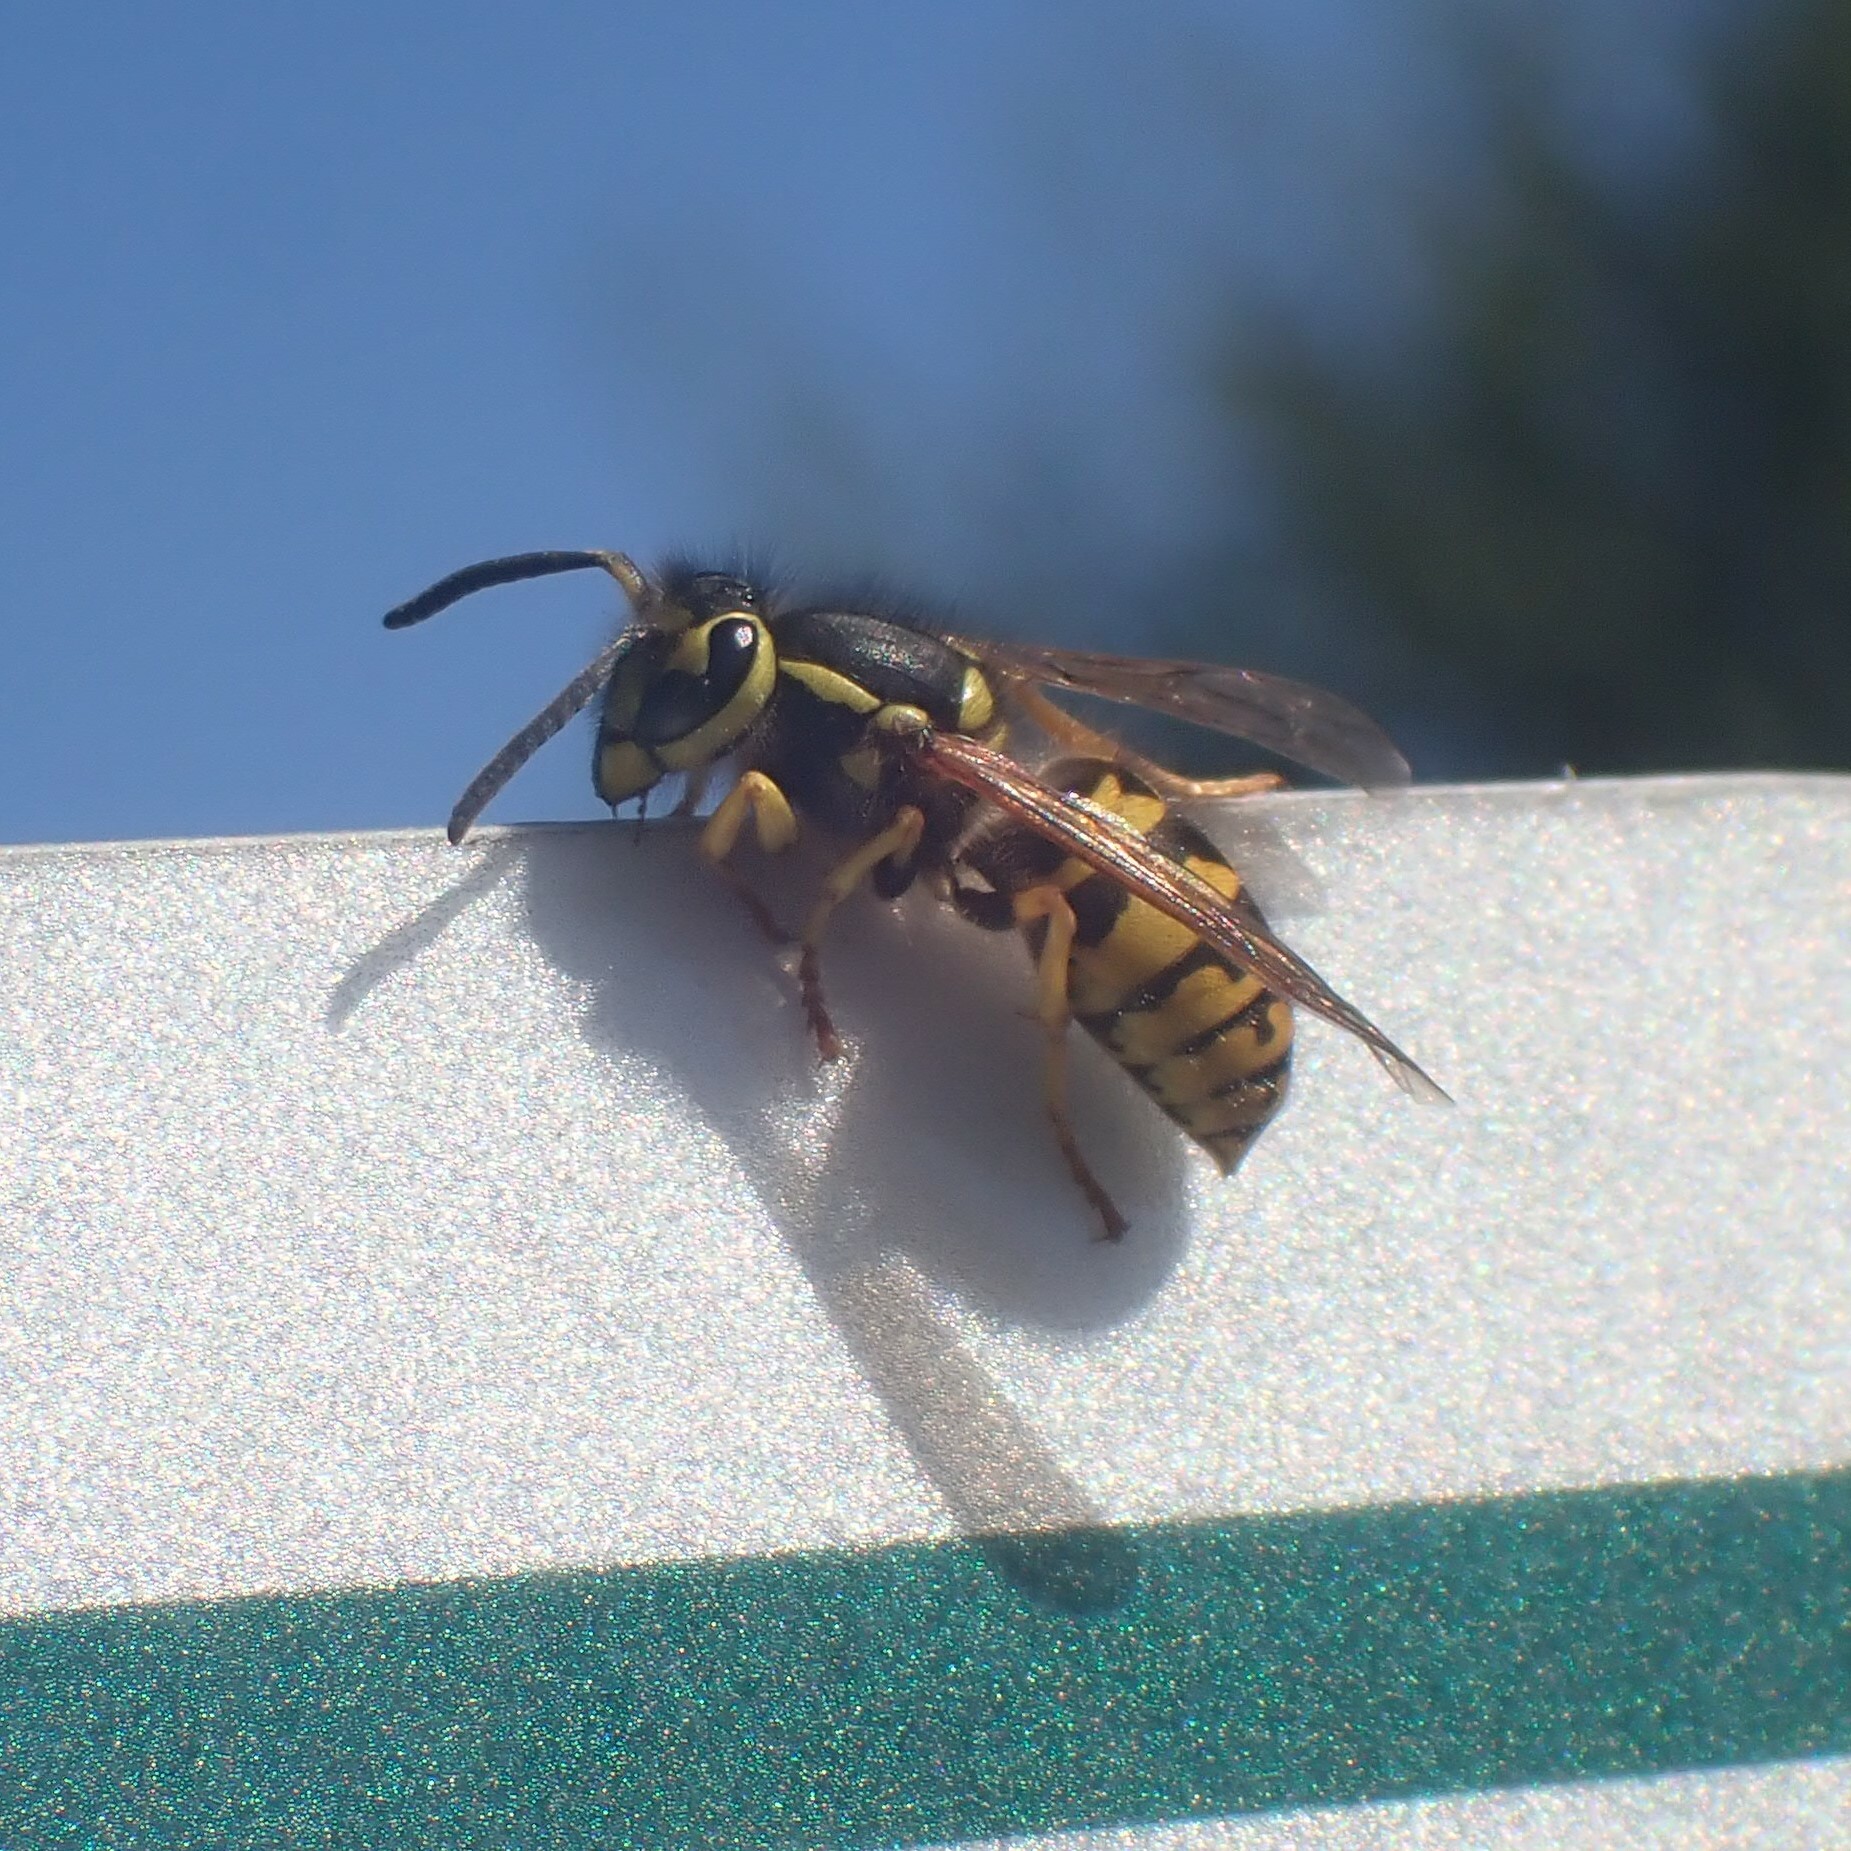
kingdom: Animalia
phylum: Arthropoda
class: Insecta
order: Hymenoptera
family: Vespidae
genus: Vespula
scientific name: Vespula pensylvanica
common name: Western yellowjacket
